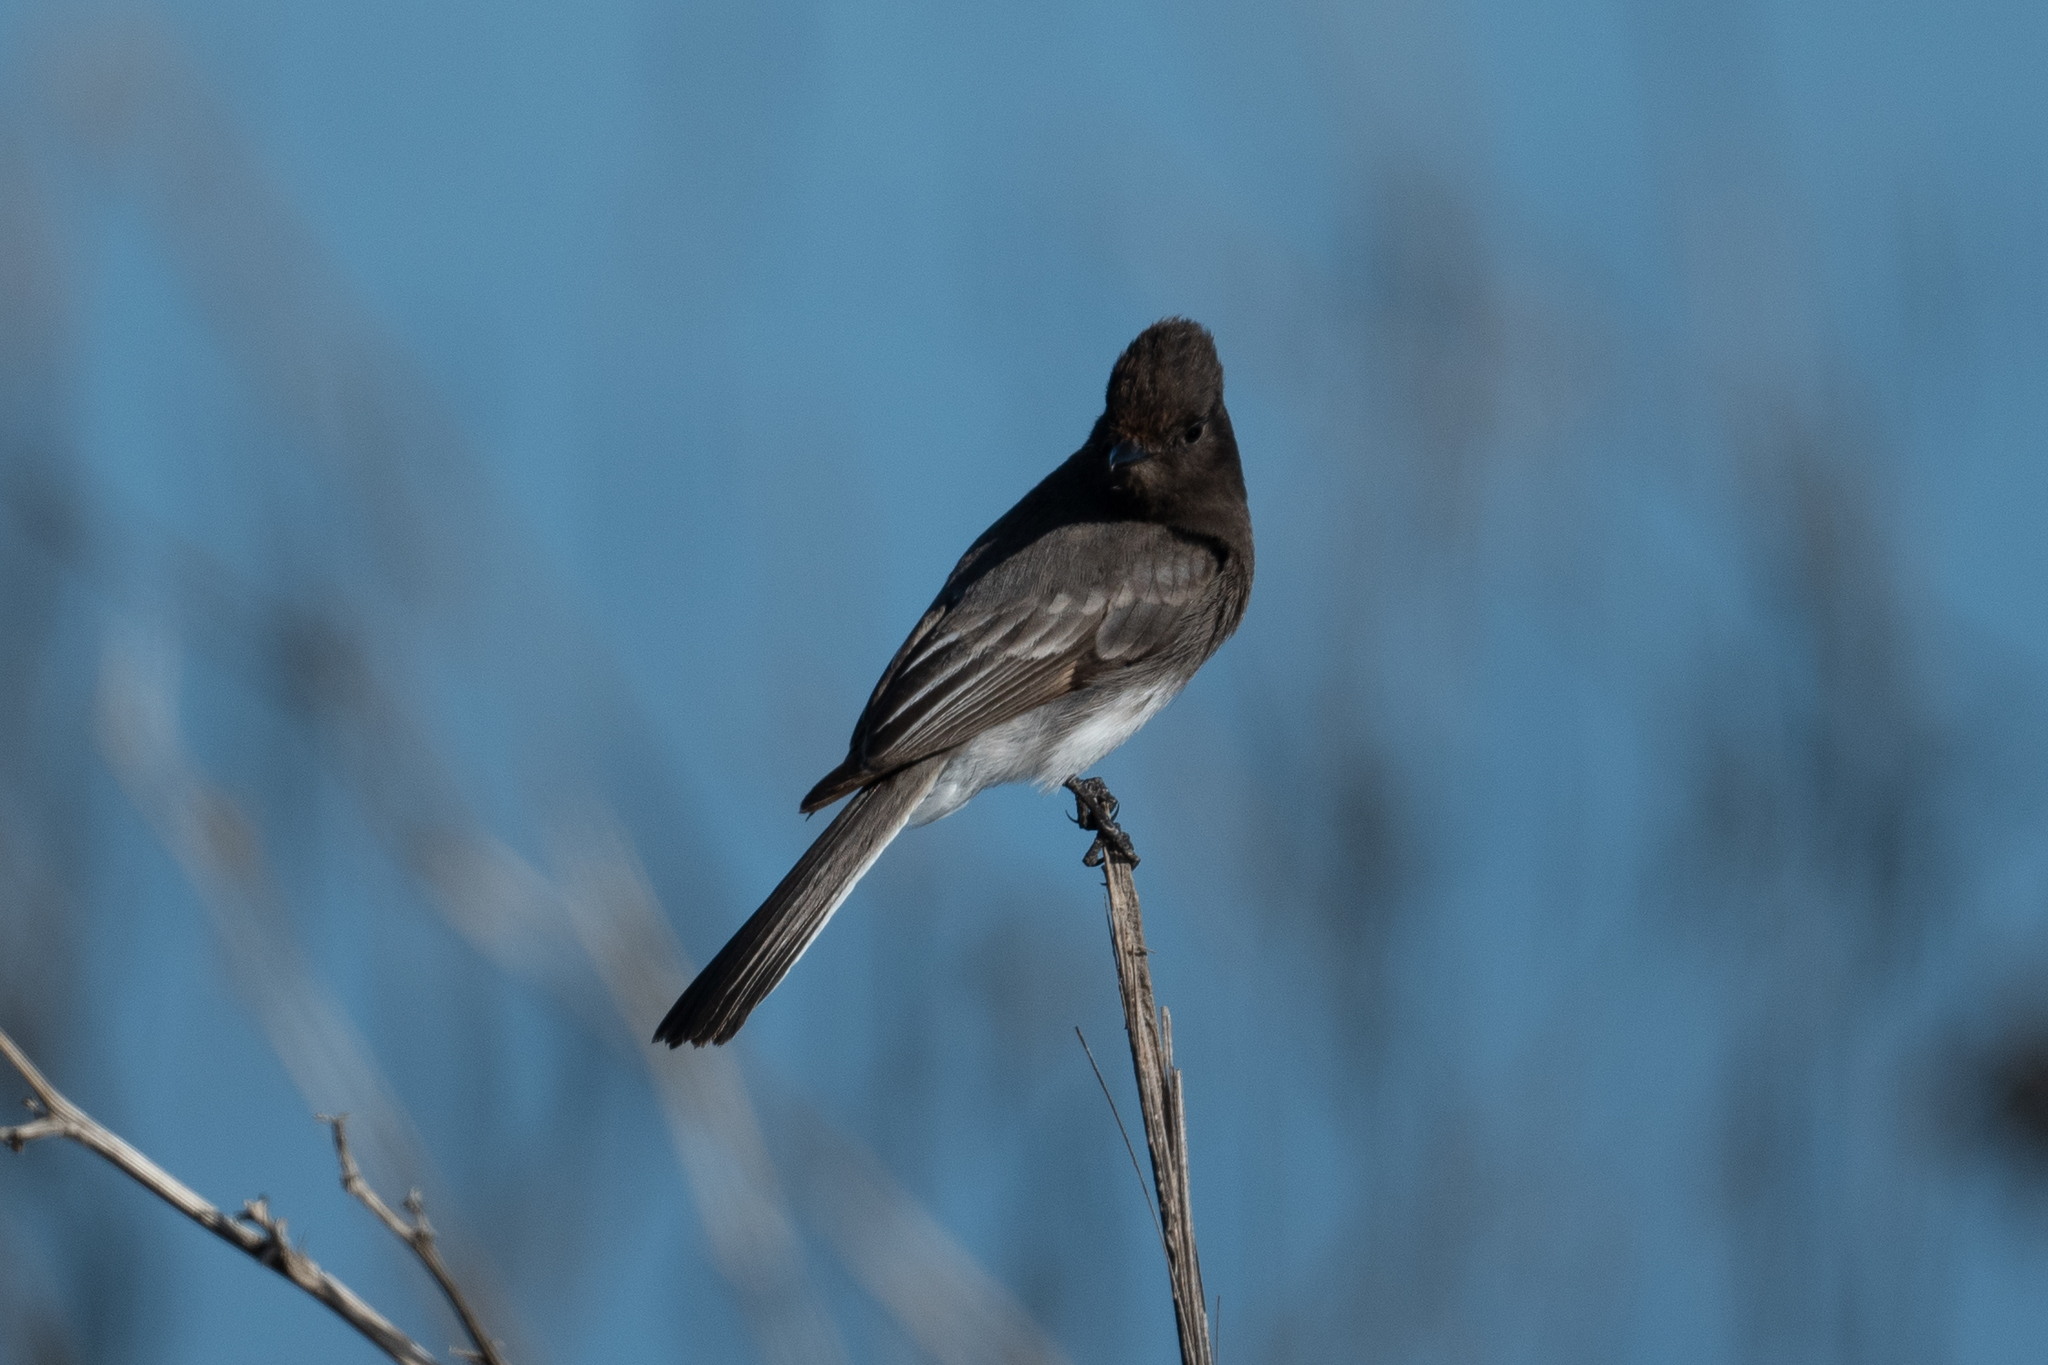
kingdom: Animalia
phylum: Chordata
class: Aves
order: Passeriformes
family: Tyrannidae
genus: Sayornis
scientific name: Sayornis nigricans
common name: Black phoebe
